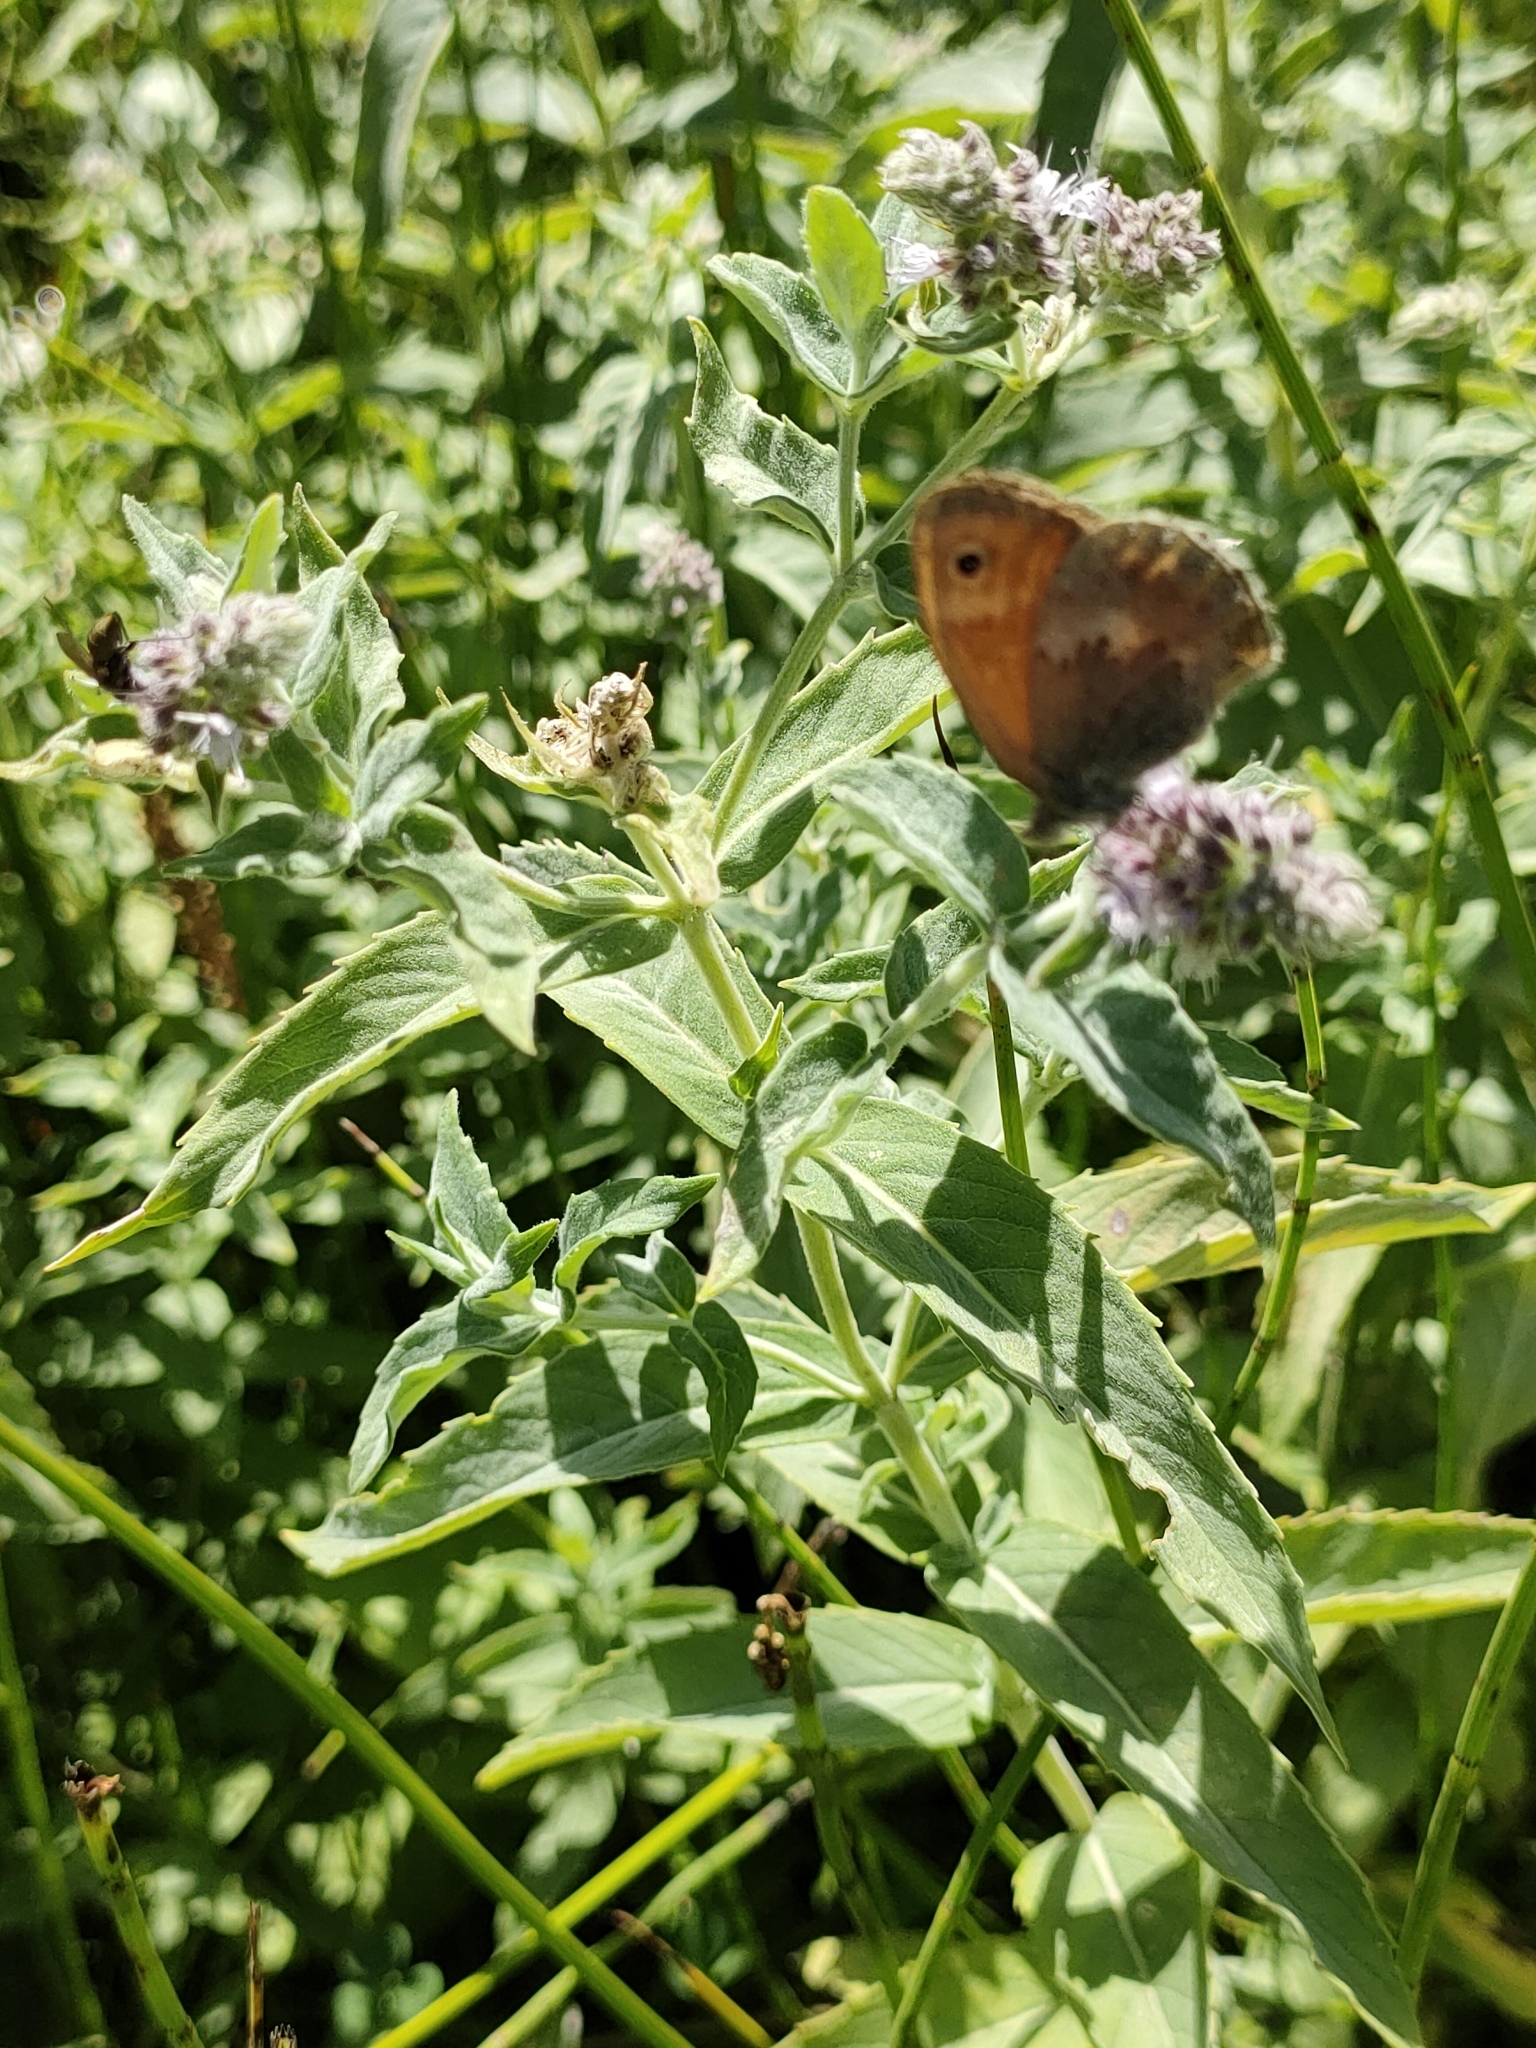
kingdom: Animalia
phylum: Arthropoda
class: Insecta
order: Lepidoptera
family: Nymphalidae
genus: Coenonympha
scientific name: Coenonympha pamphilus
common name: Small heath
